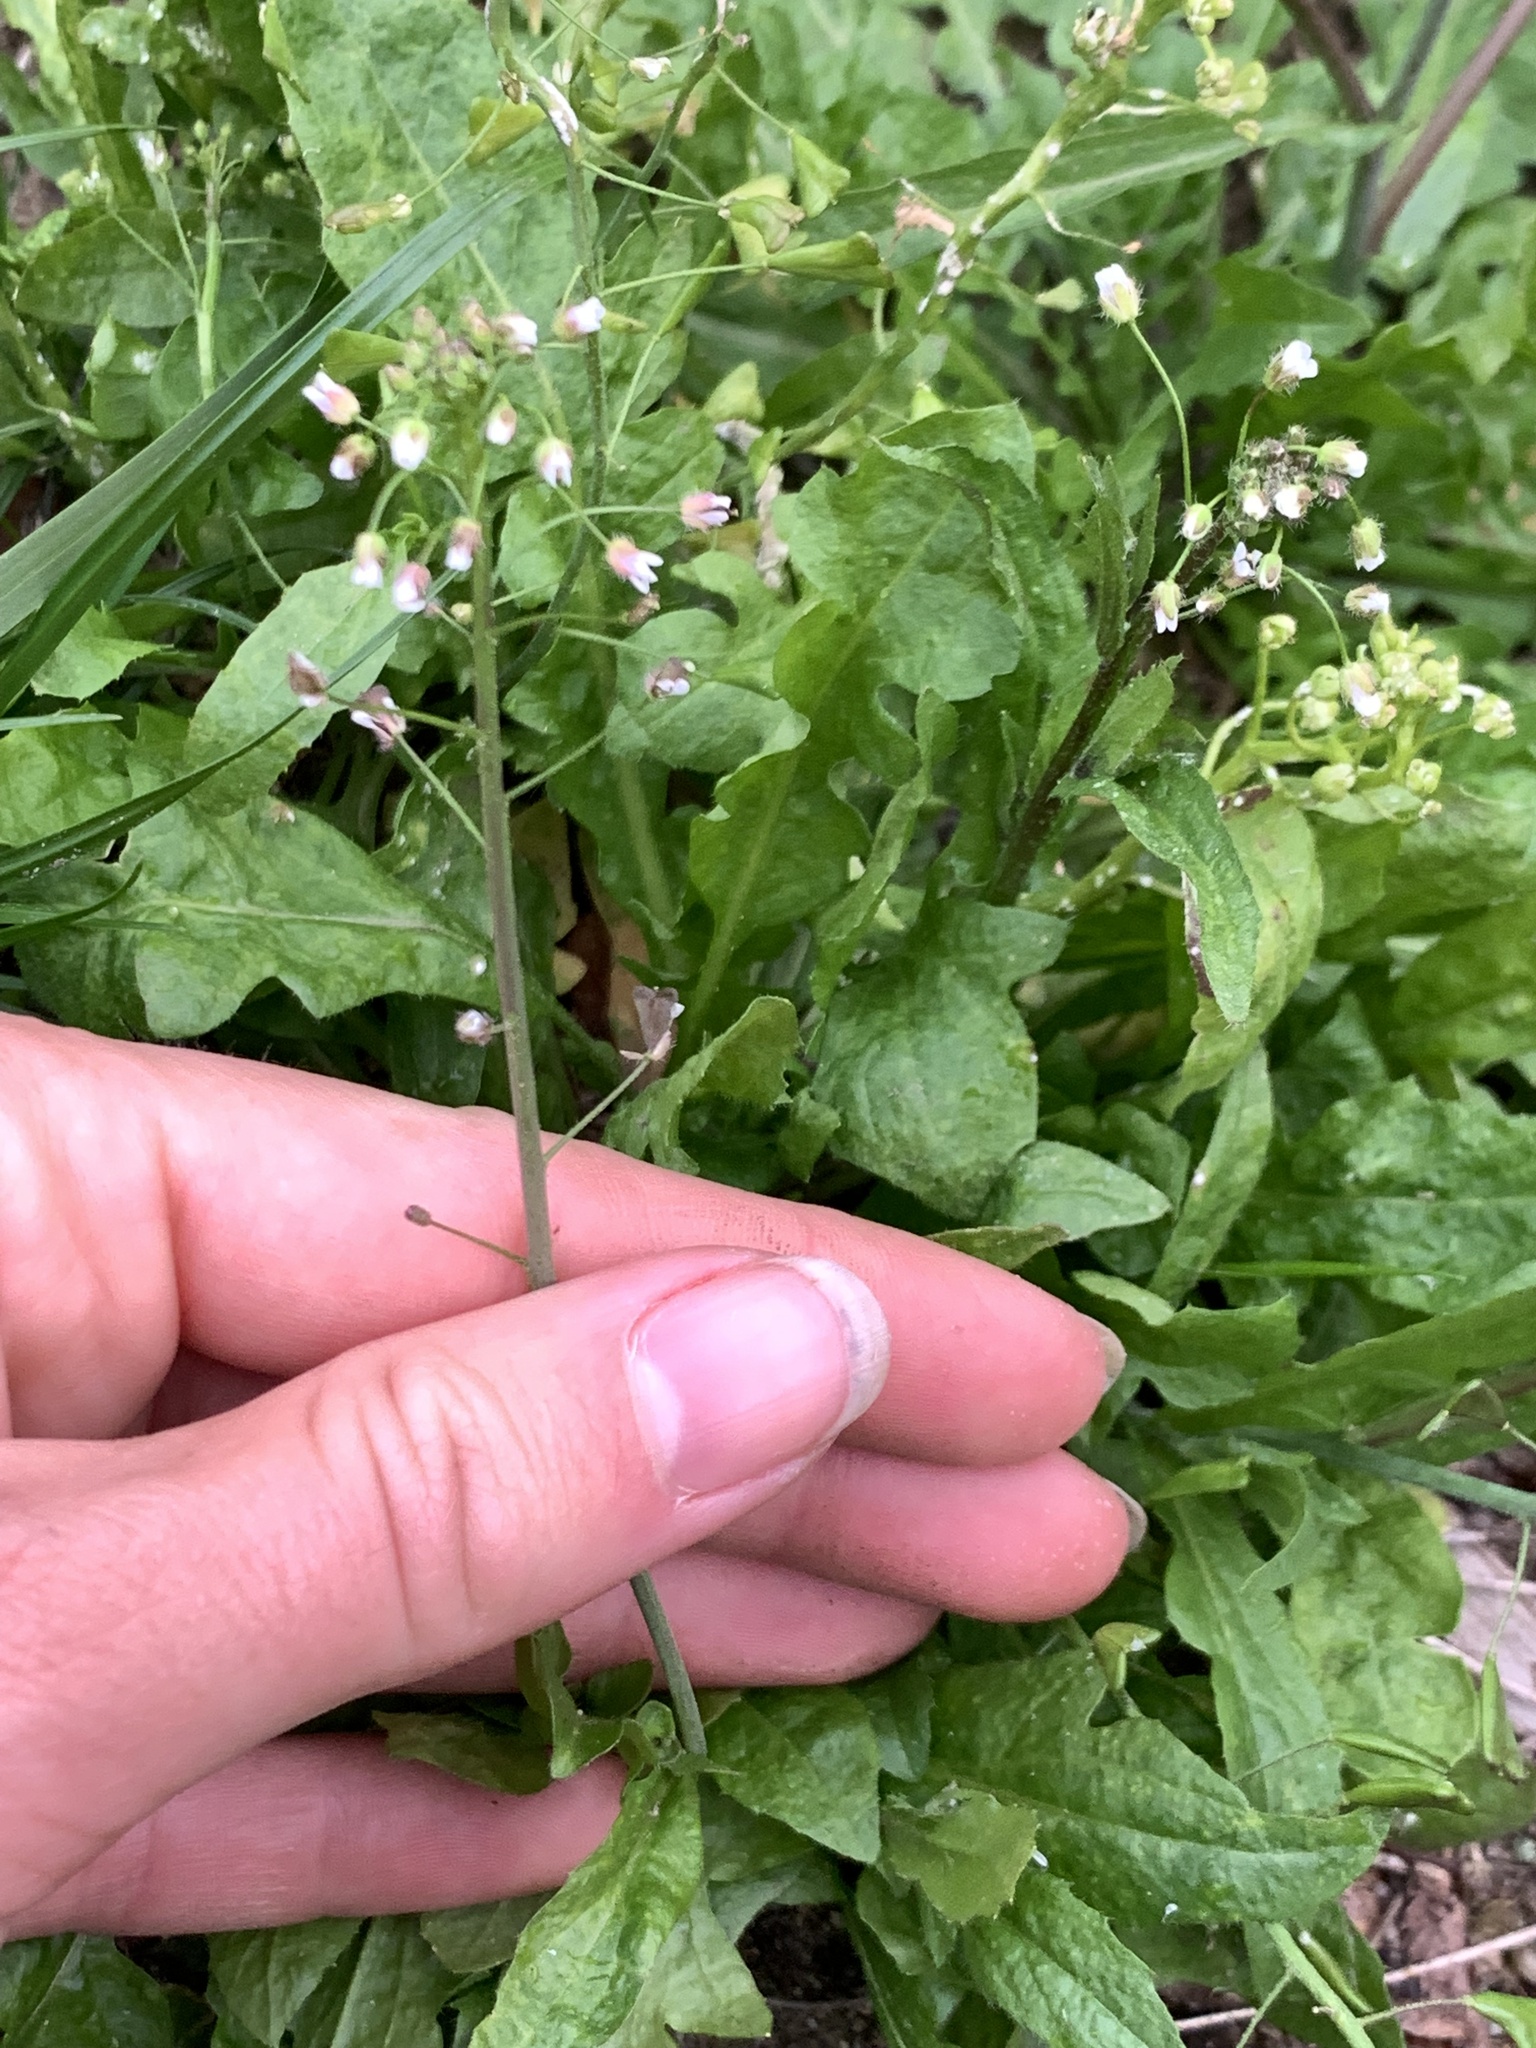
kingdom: Plantae
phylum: Tracheophyta
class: Magnoliopsida
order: Brassicales
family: Brassicaceae
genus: Capsella
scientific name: Capsella bursa-pastoris
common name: Shepherd's purse
